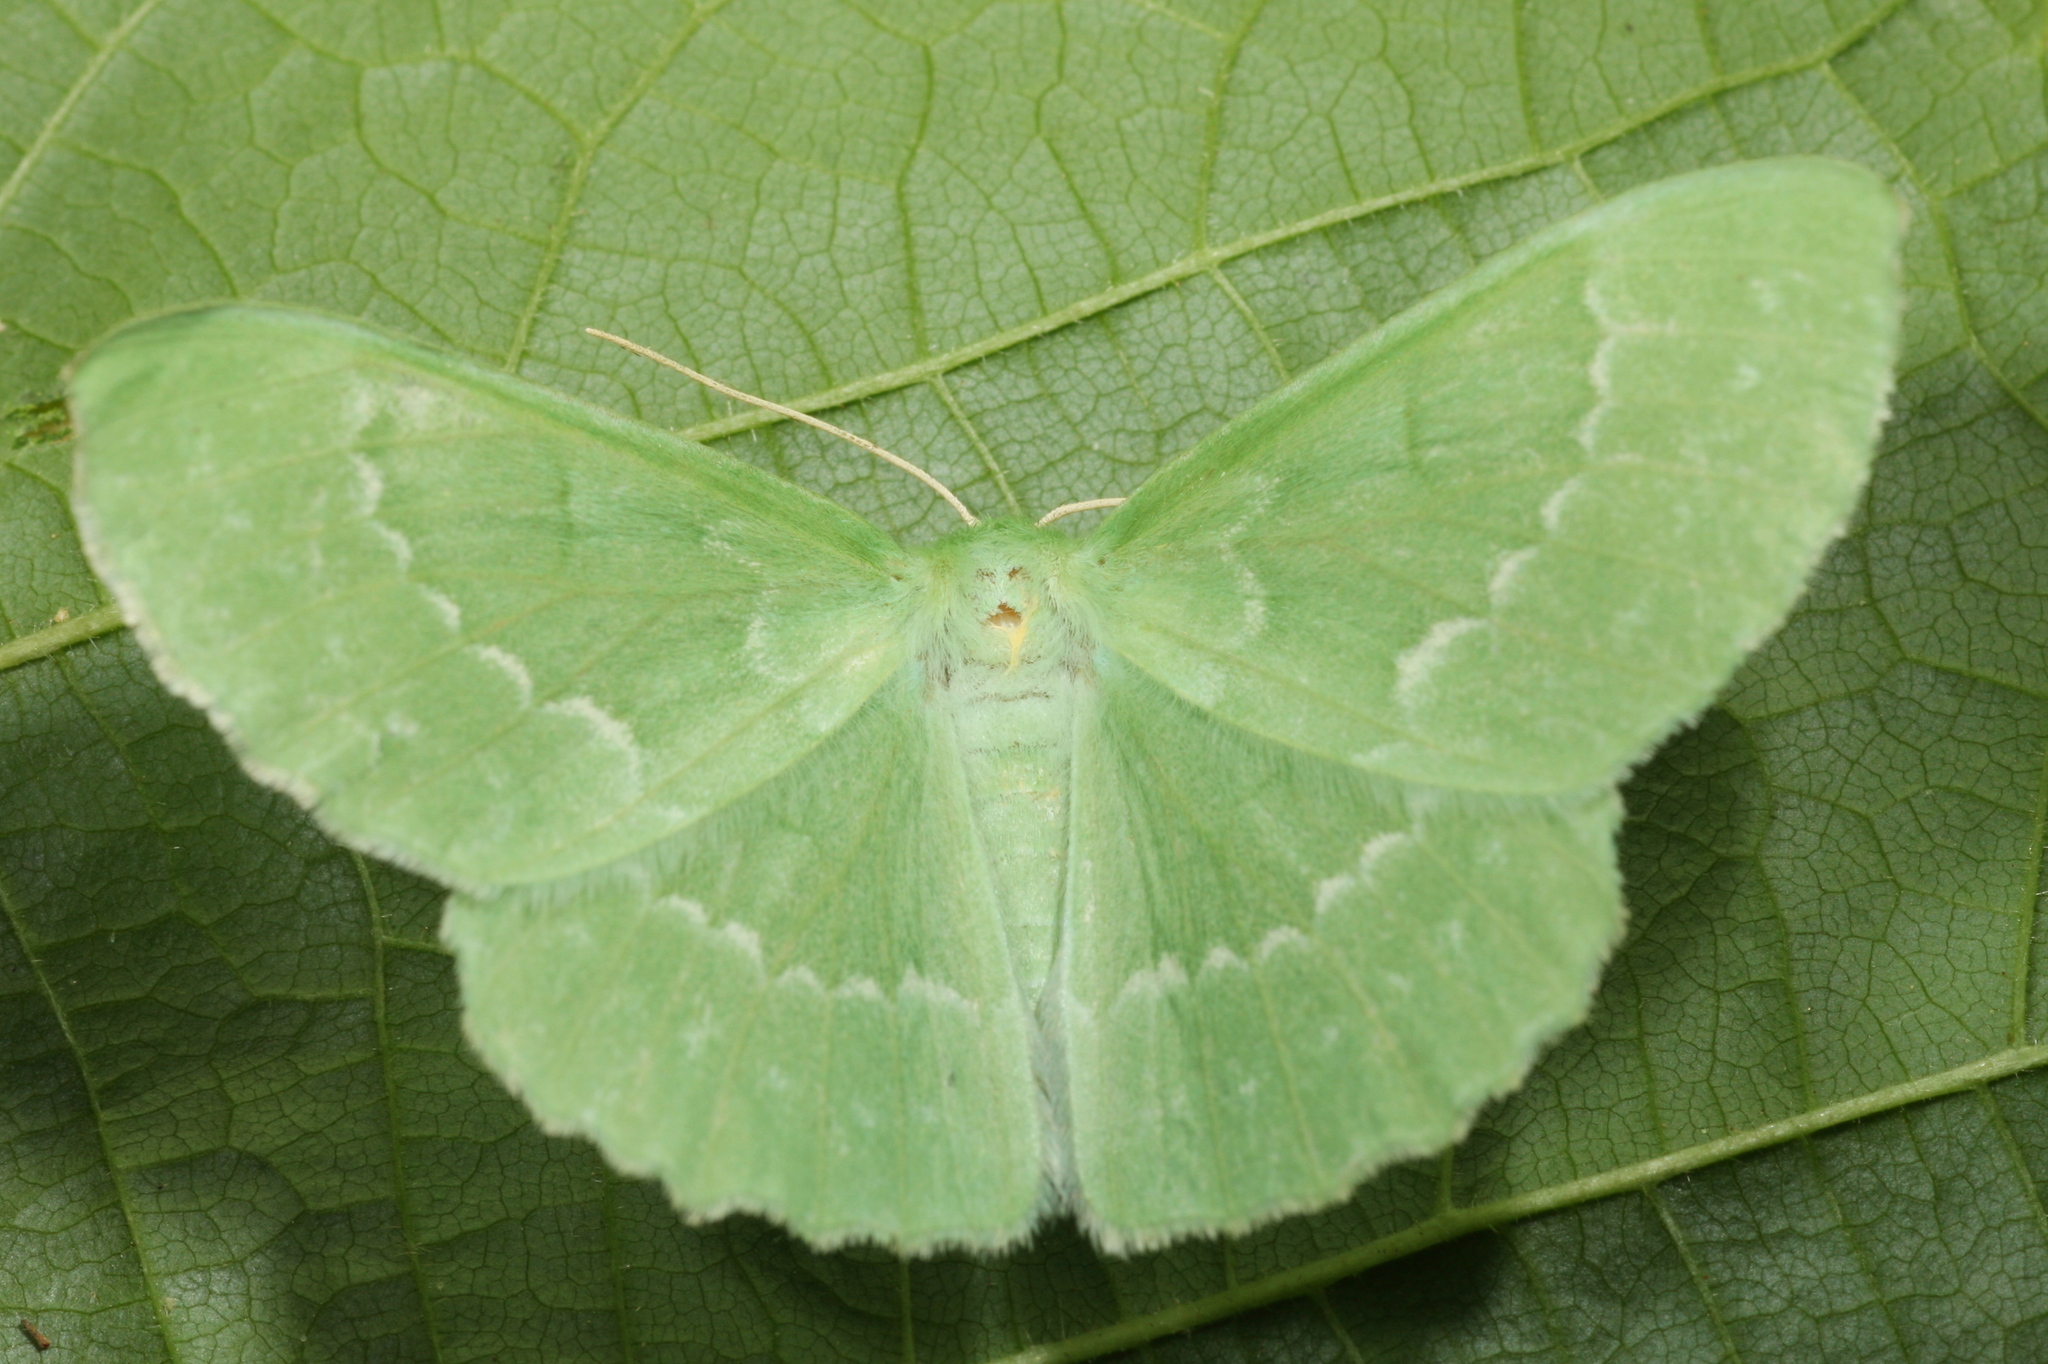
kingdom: Animalia
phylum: Arthropoda
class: Insecta
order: Lepidoptera
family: Geometridae
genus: Geometra
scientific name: Geometra papilionaria
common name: Large emerald
